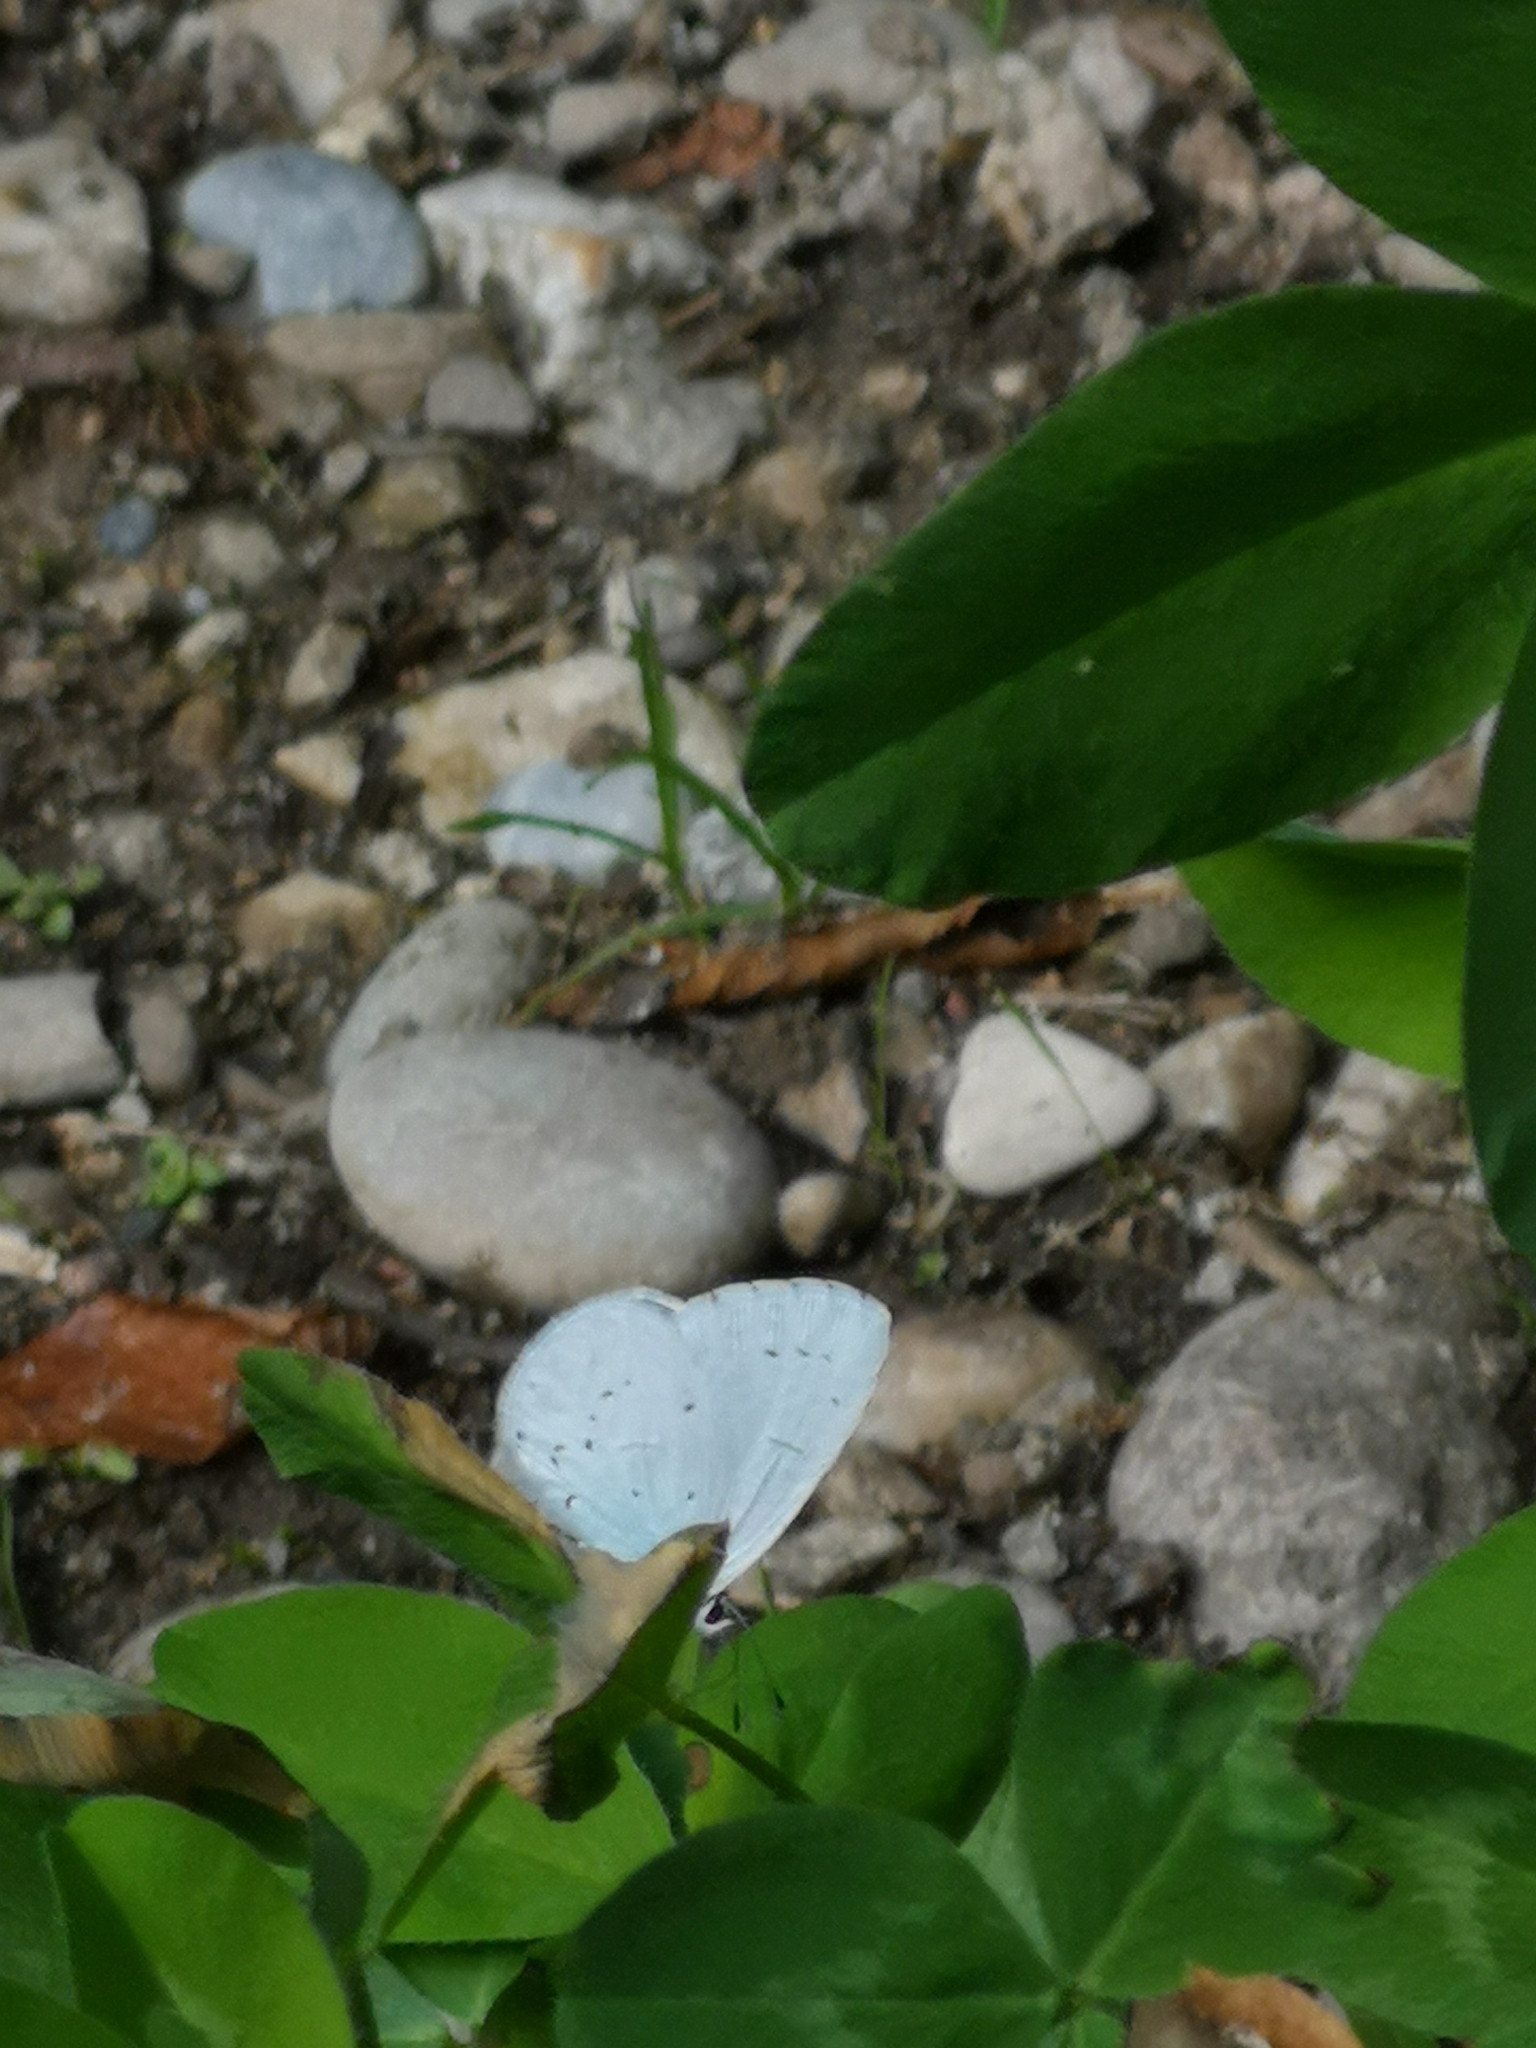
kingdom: Animalia
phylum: Arthropoda
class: Insecta
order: Lepidoptera
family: Lycaenidae
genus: Celastrina
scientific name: Celastrina argiolus
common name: Holly blue
